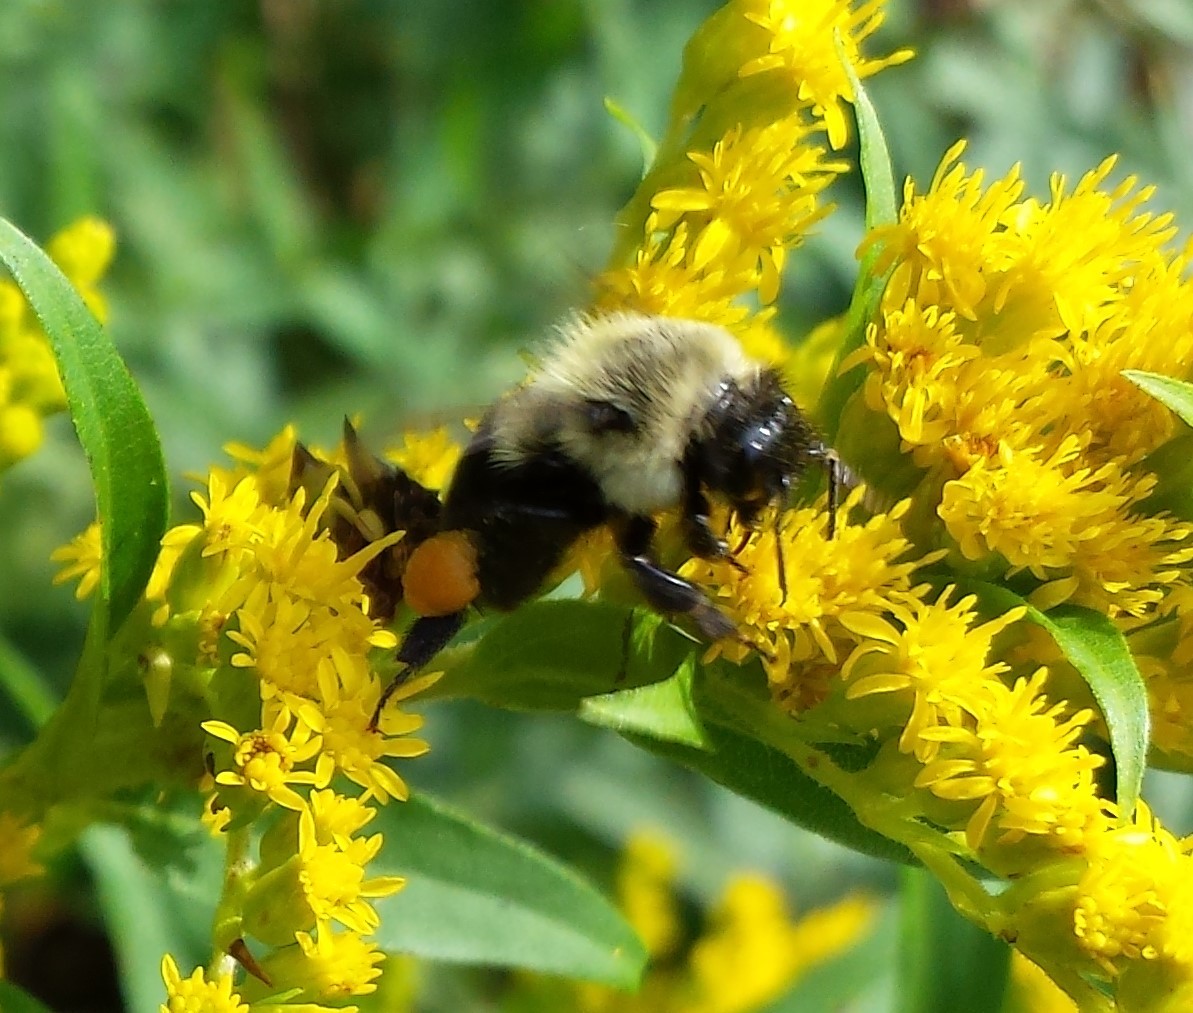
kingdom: Animalia
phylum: Arthropoda
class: Insecta
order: Hymenoptera
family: Apidae
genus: Bombus
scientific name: Bombus impatiens
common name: Common eastern bumble bee
